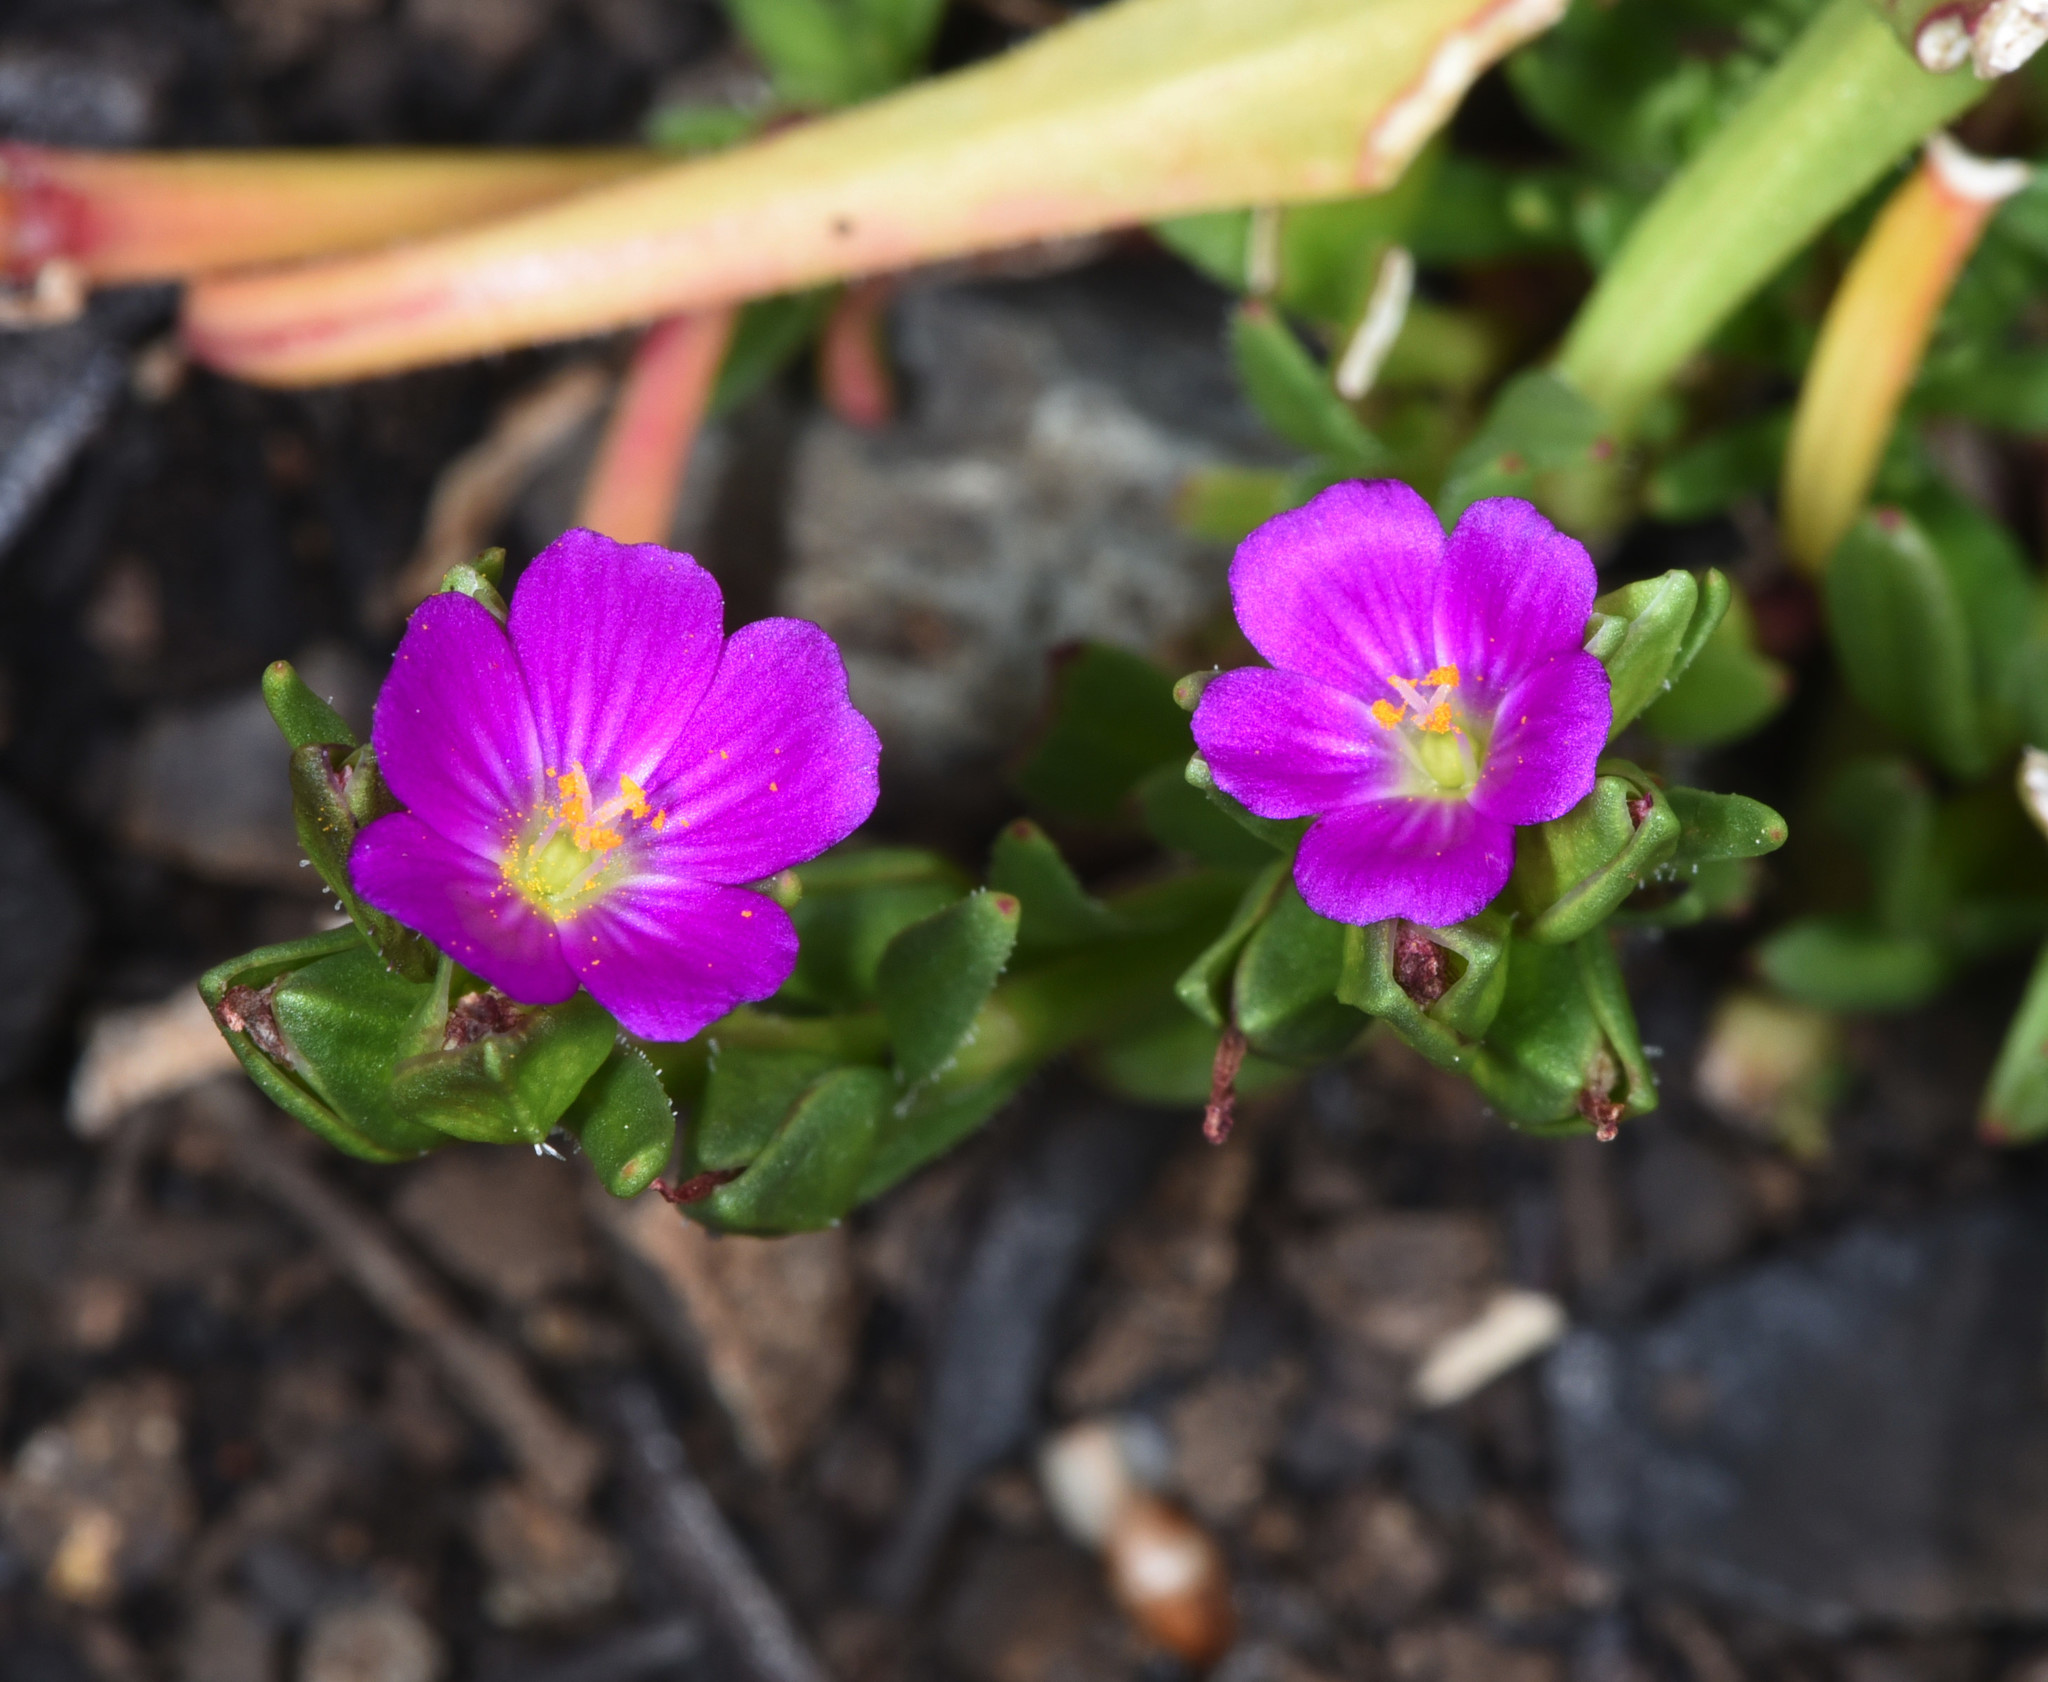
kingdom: Plantae
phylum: Tracheophyta
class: Magnoliopsida
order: Caryophyllales
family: Montiaceae
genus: Calandrinia
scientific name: Calandrinia menziesii
